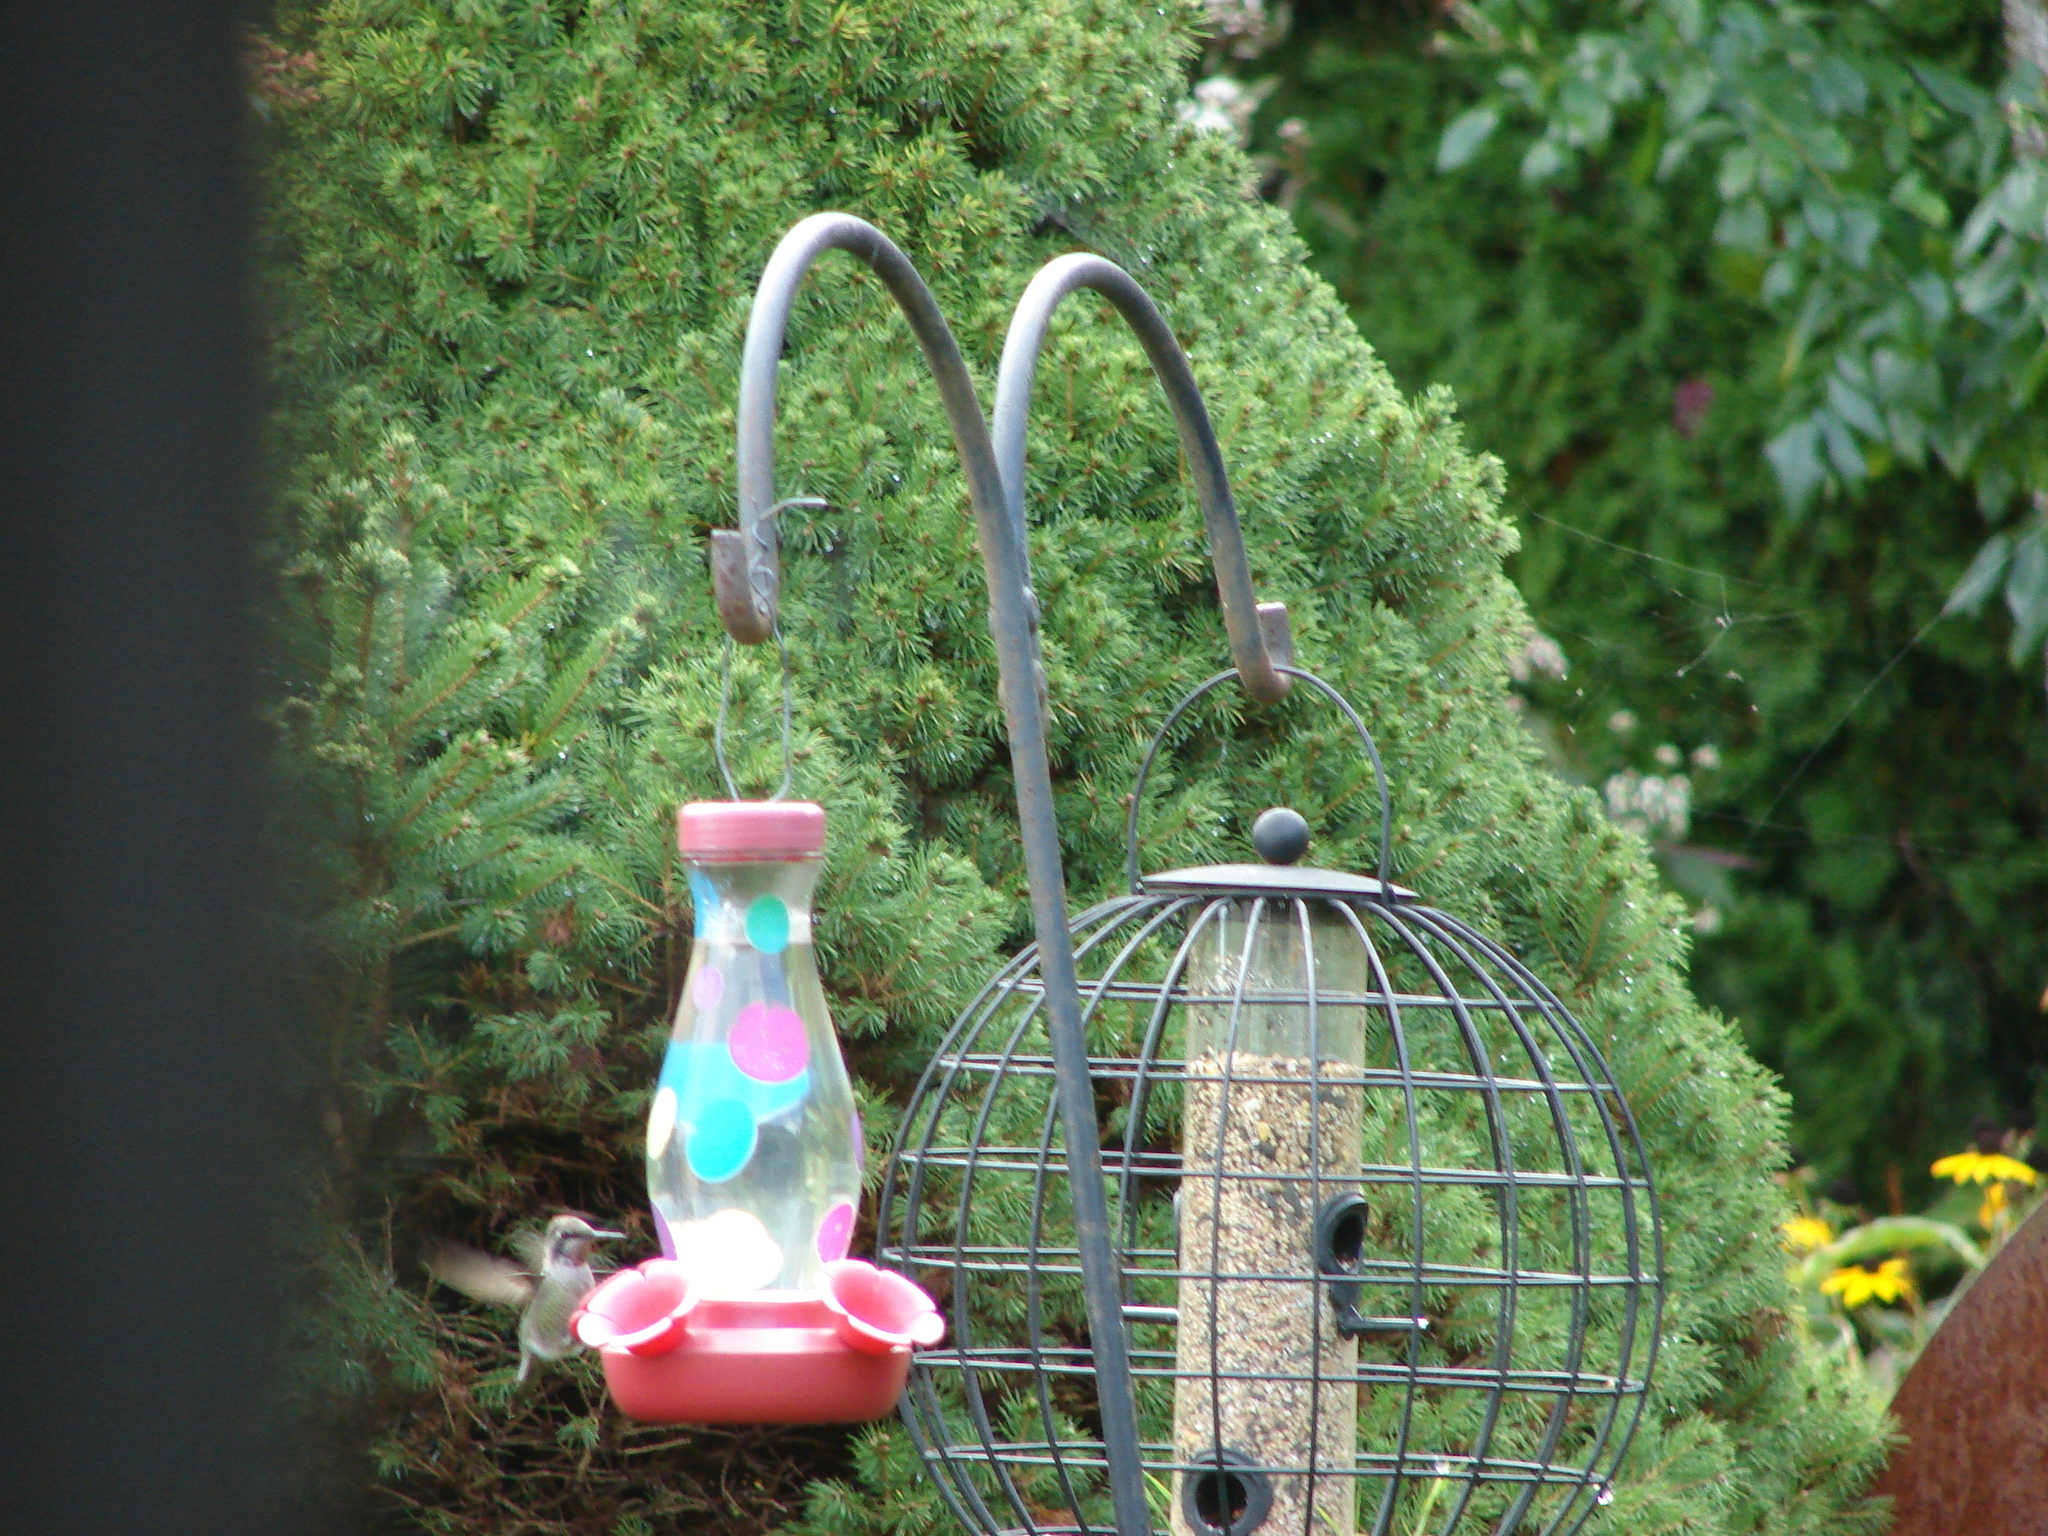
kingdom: Animalia
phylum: Chordata
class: Aves
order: Apodiformes
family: Trochilidae
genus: Calypte
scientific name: Calypte anna
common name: Anna's hummingbird
